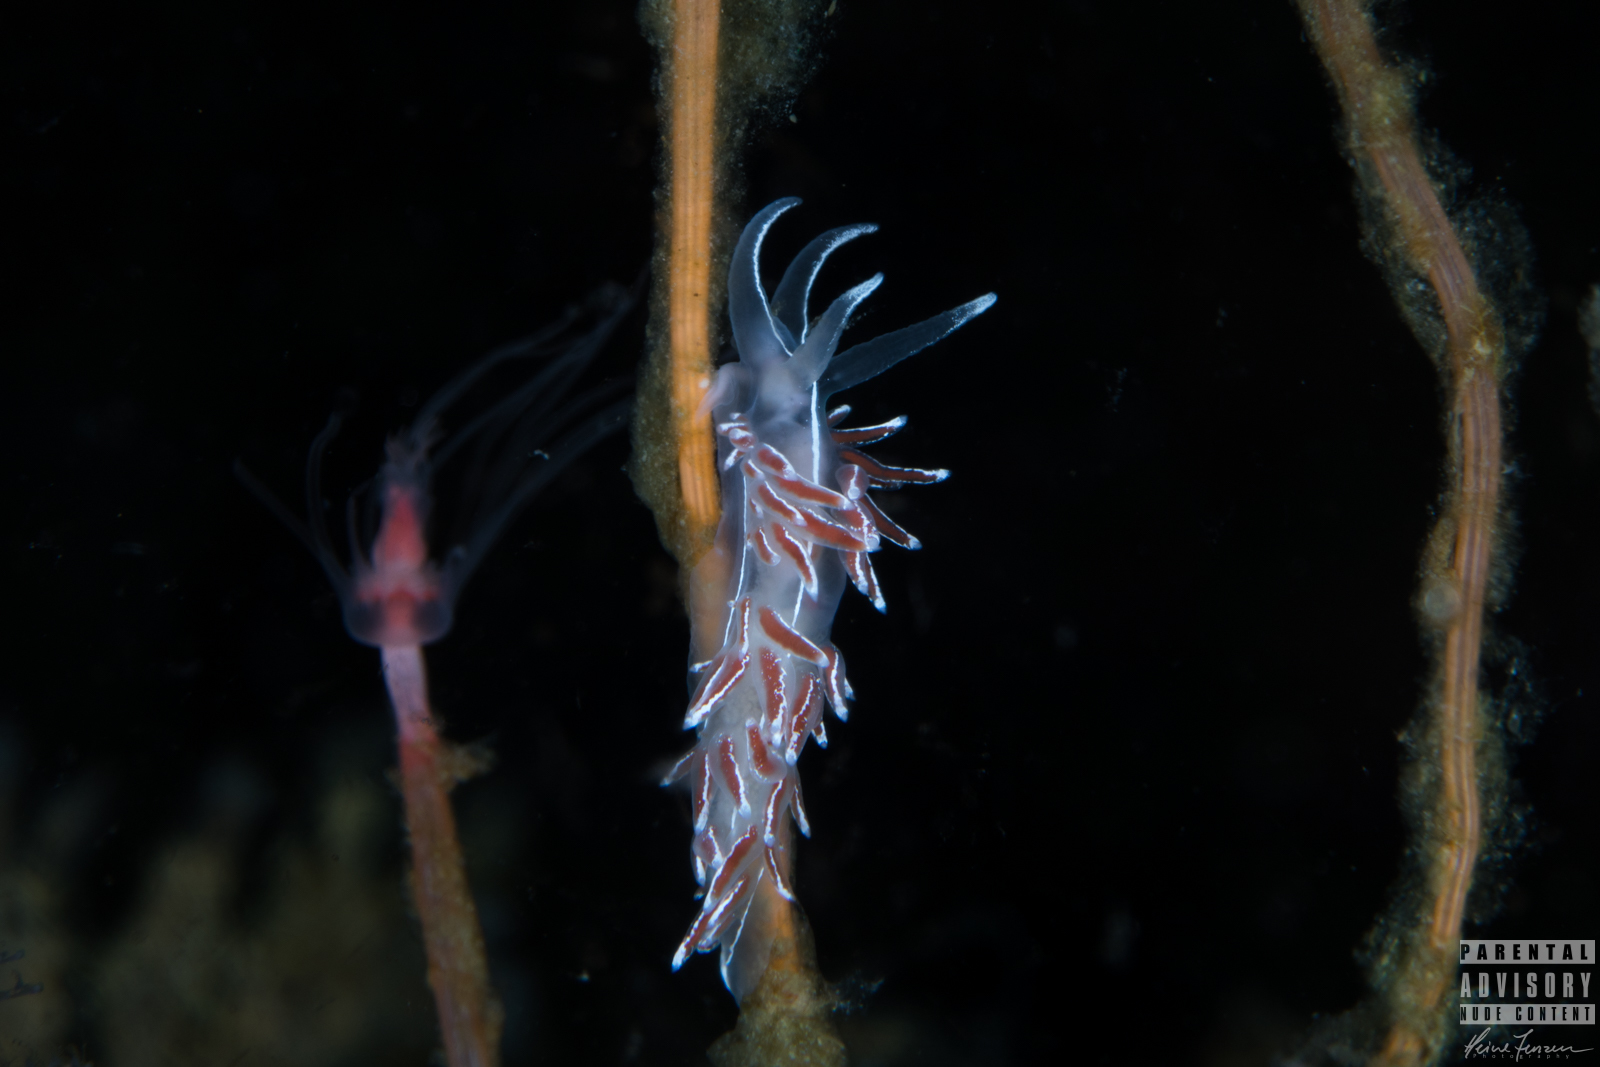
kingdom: Animalia
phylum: Mollusca
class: Gastropoda
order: Nudibranchia
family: Coryphellidae
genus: Coryphella
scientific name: Coryphella lineata
